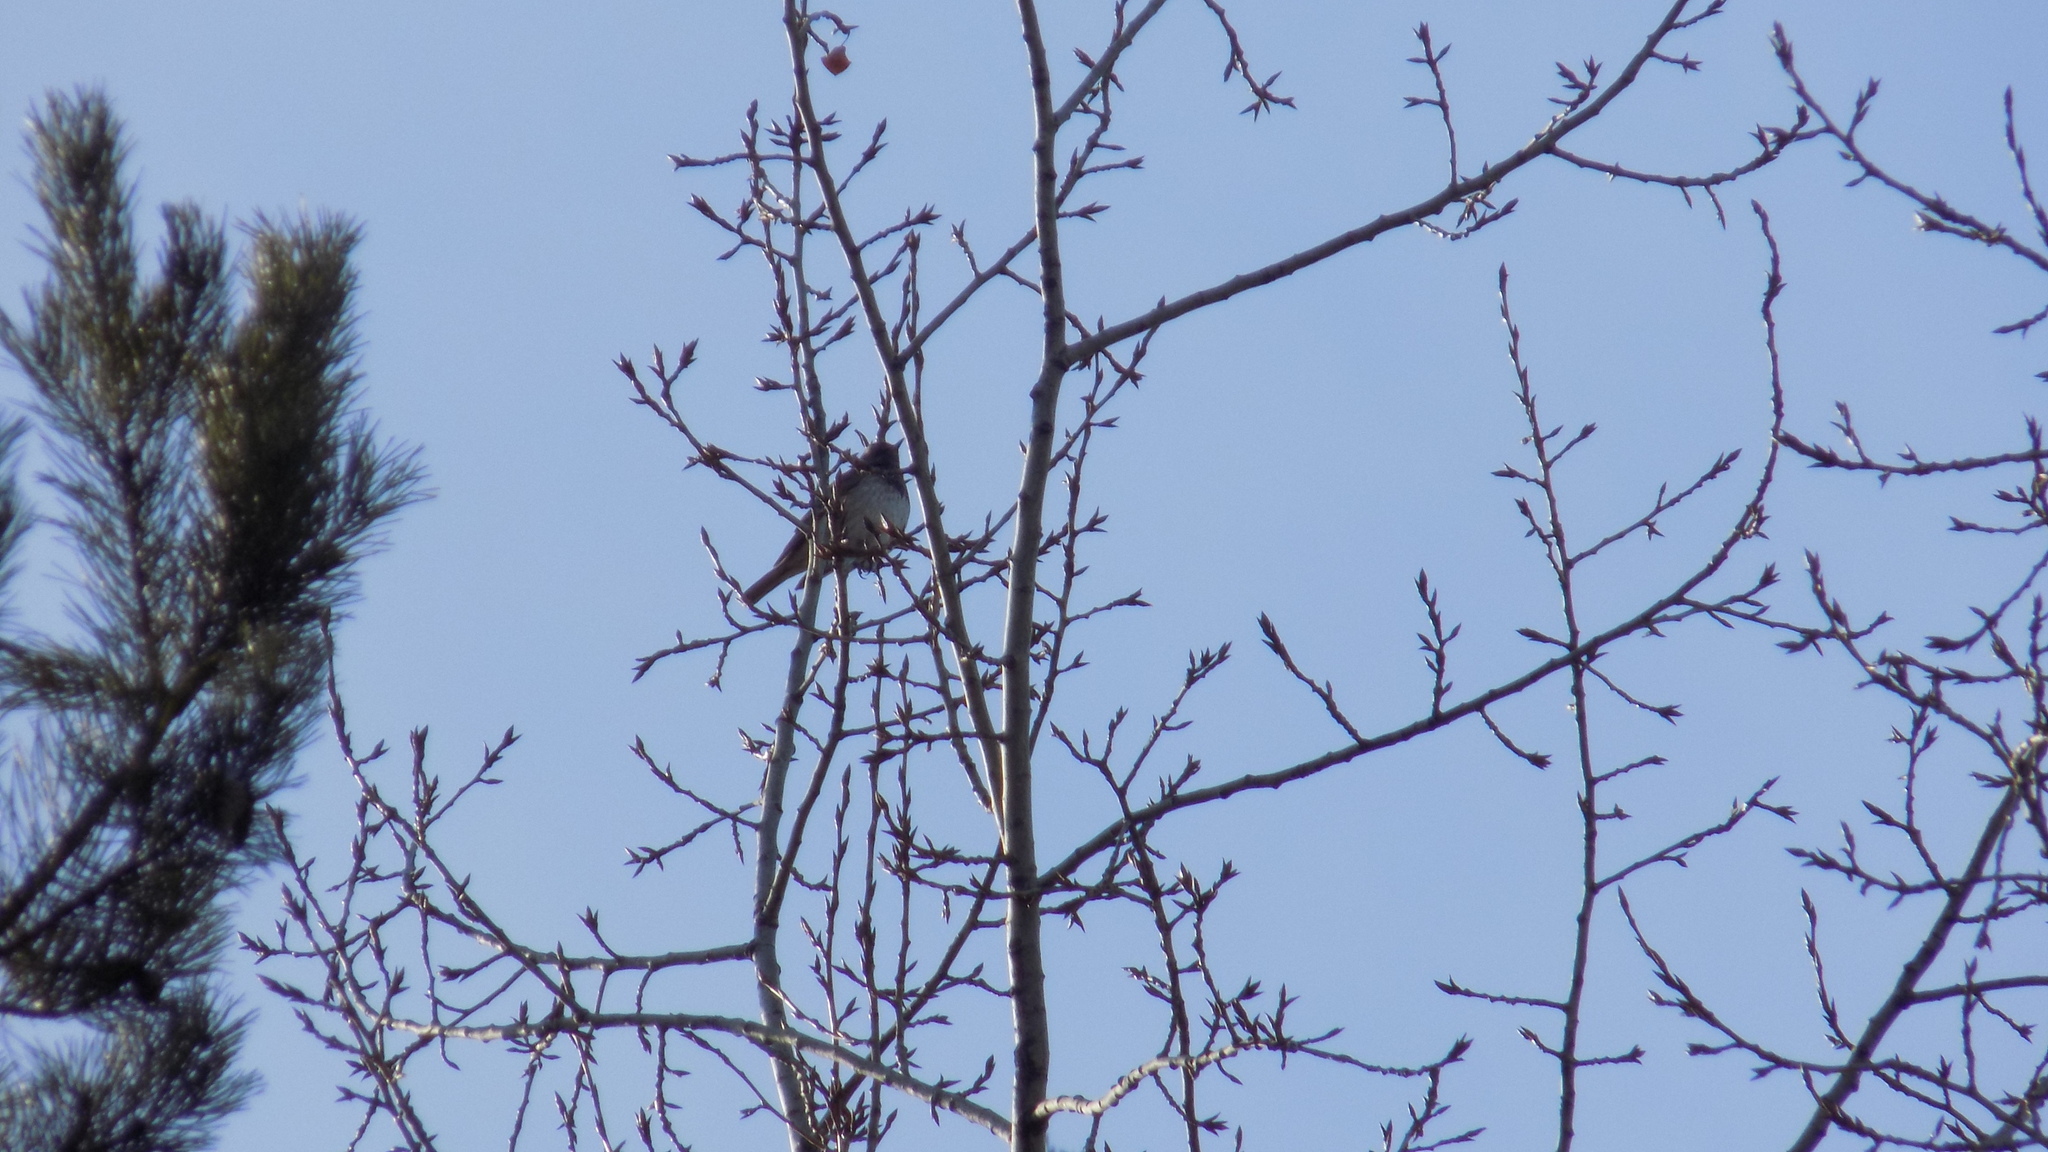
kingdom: Animalia
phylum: Chordata
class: Aves
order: Passeriformes
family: Turdidae
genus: Turdus
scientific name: Turdus atrogularis
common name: Black-throated thrush
